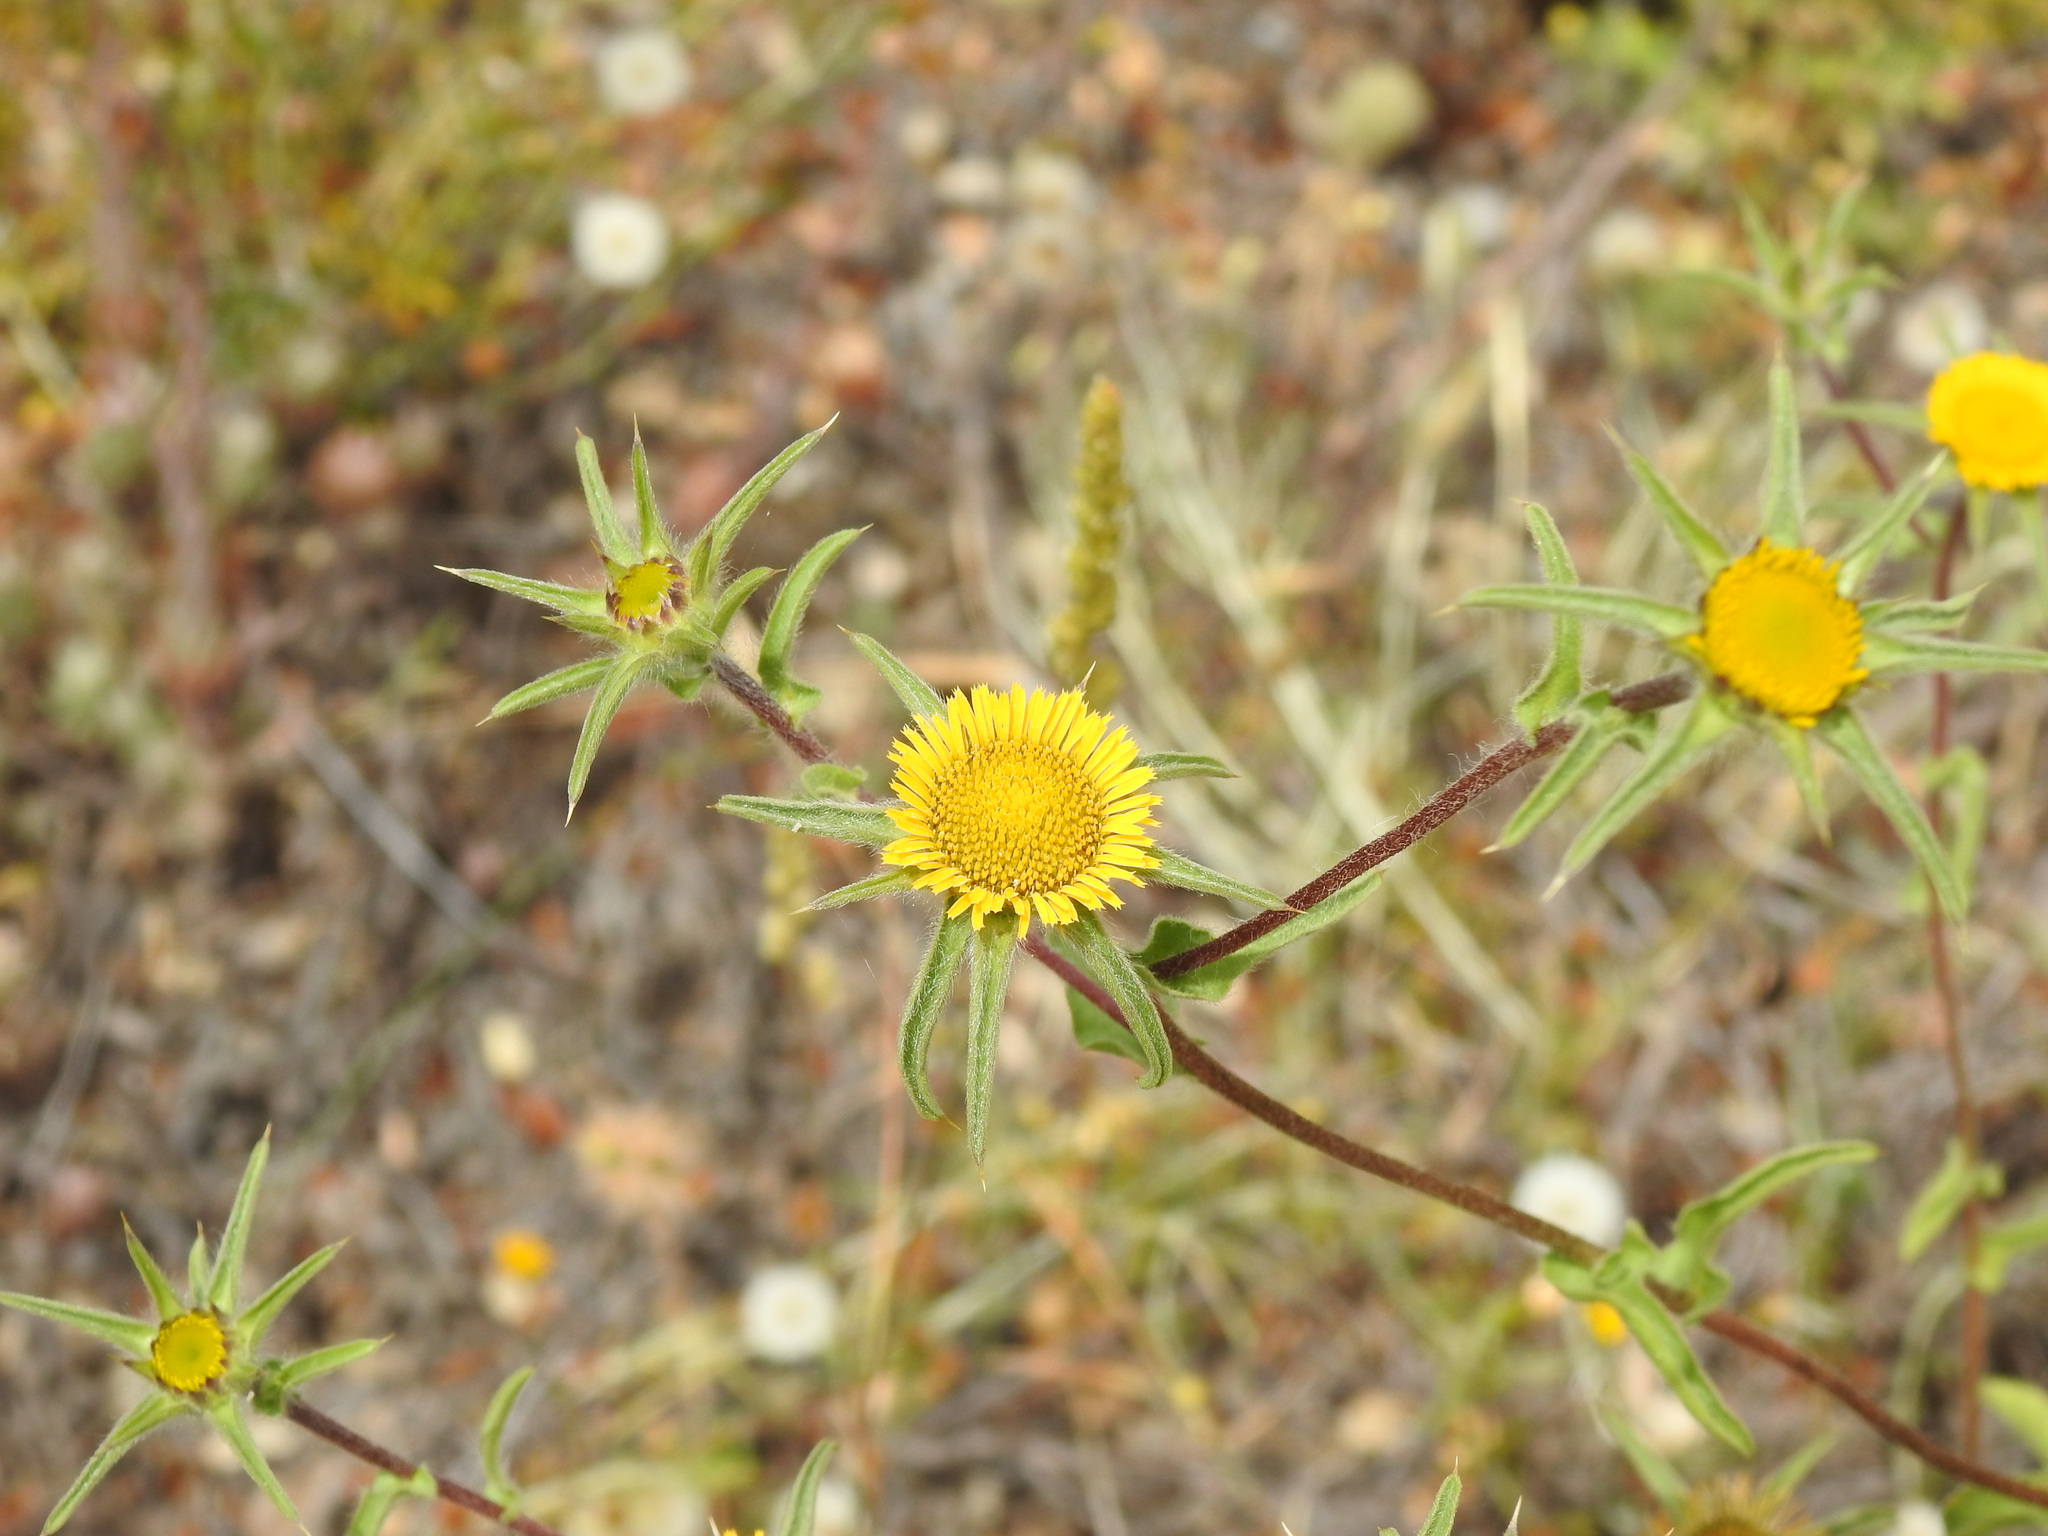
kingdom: Plantae
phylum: Tracheophyta
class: Magnoliopsida
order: Asterales
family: Asteraceae
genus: Pallenis
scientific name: Pallenis spinosa
